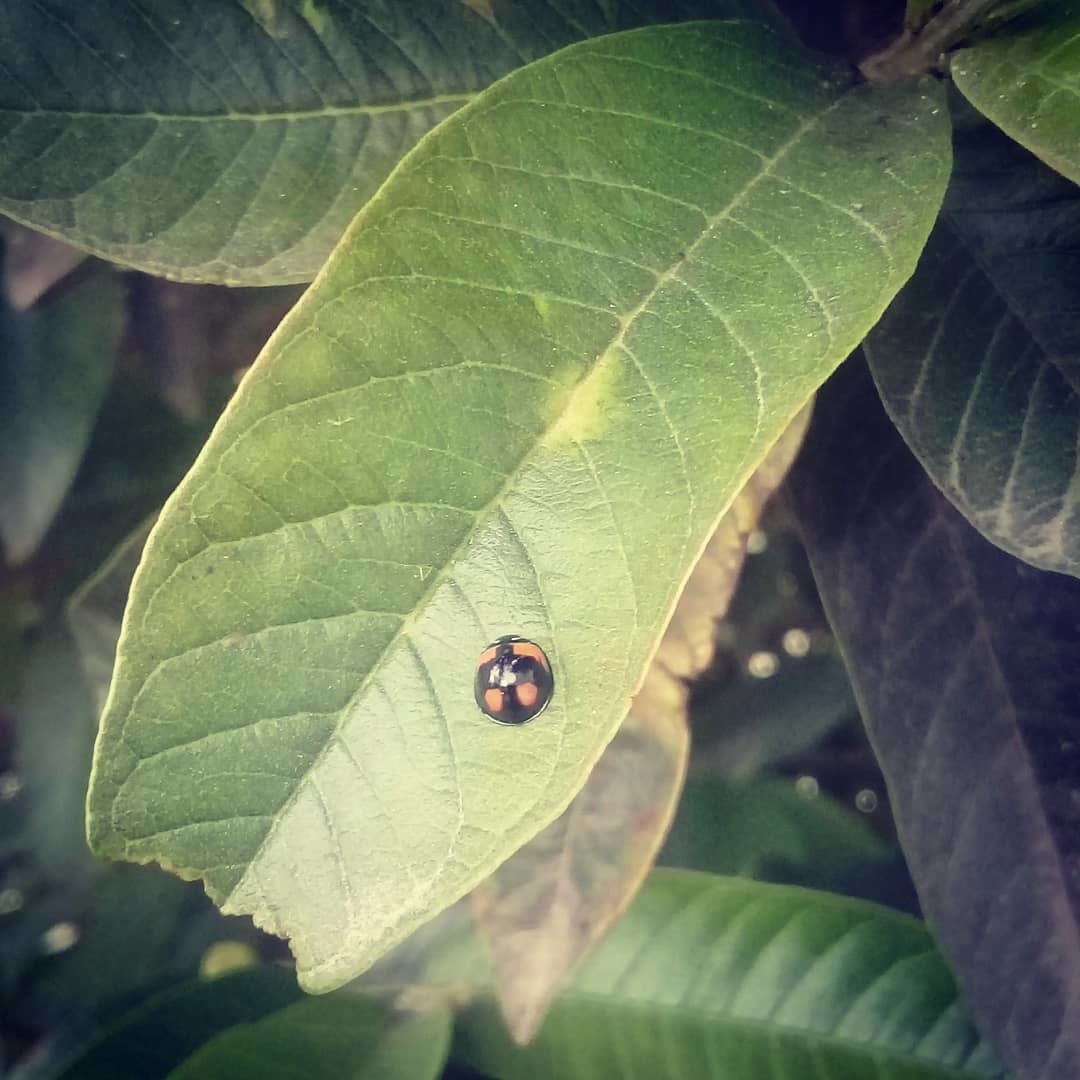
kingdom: Animalia
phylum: Arthropoda
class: Insecta
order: Coleoptera
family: Coccinellidae
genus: Cheilomenes
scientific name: Cheilomenes sexmaculata
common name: Ladybird beetle
